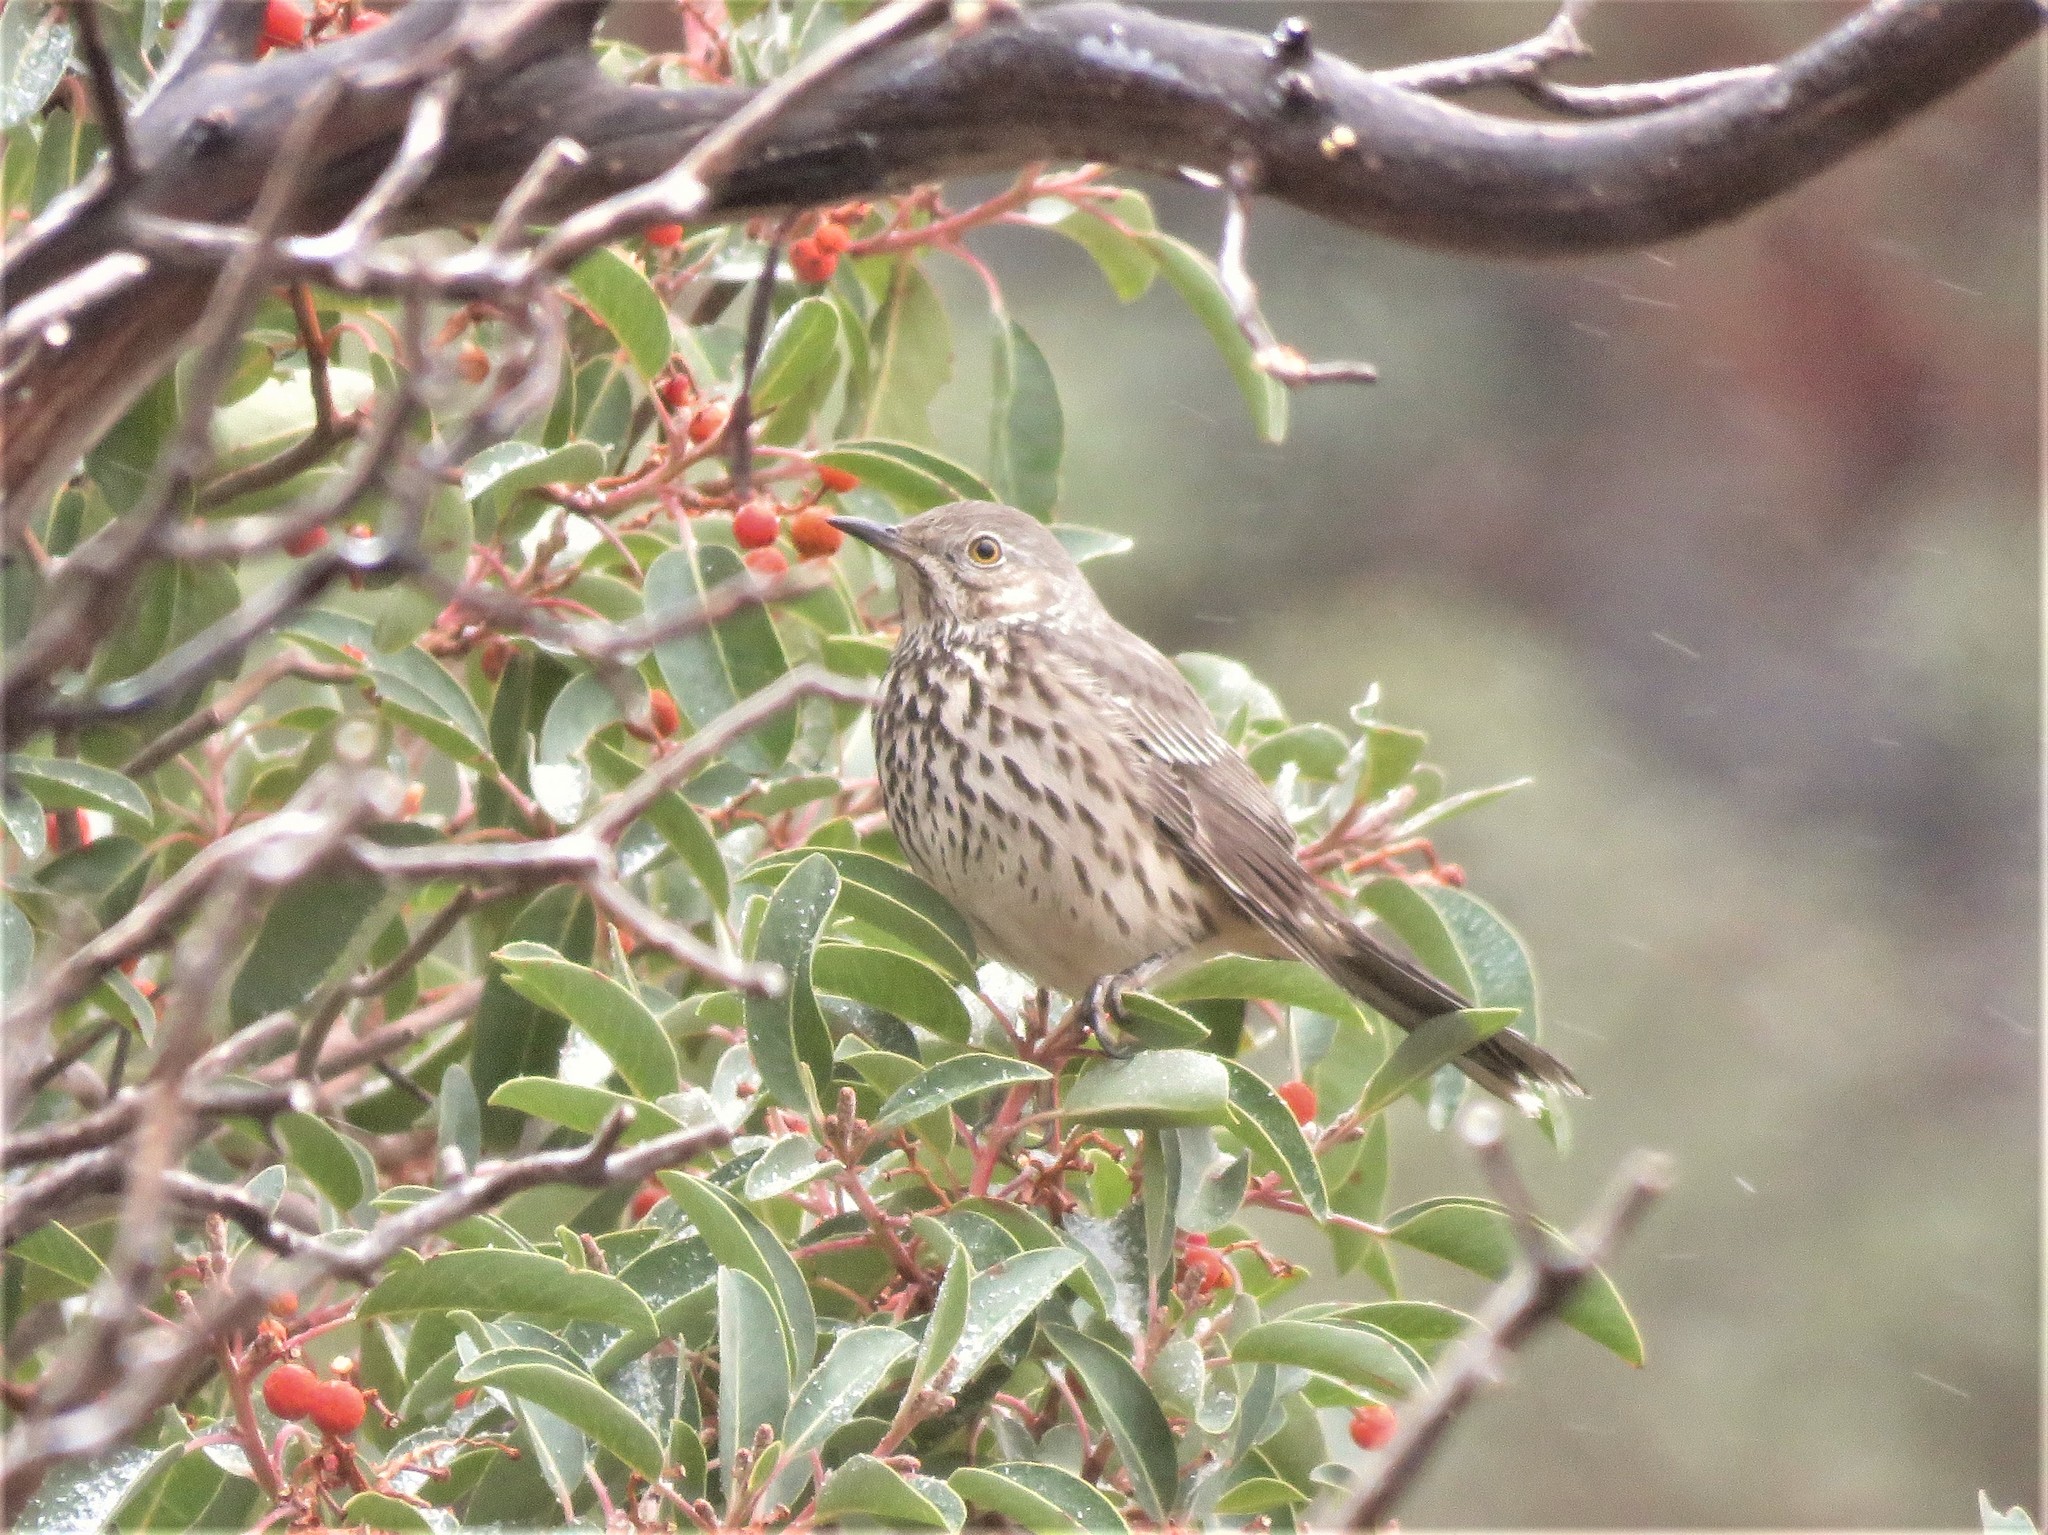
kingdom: Animalia
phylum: Chordata
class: Aves
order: Passeriformes
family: Mimidae
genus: Oreoscoptes
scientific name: Oreoscoptes montanus
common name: Sage thrasher
